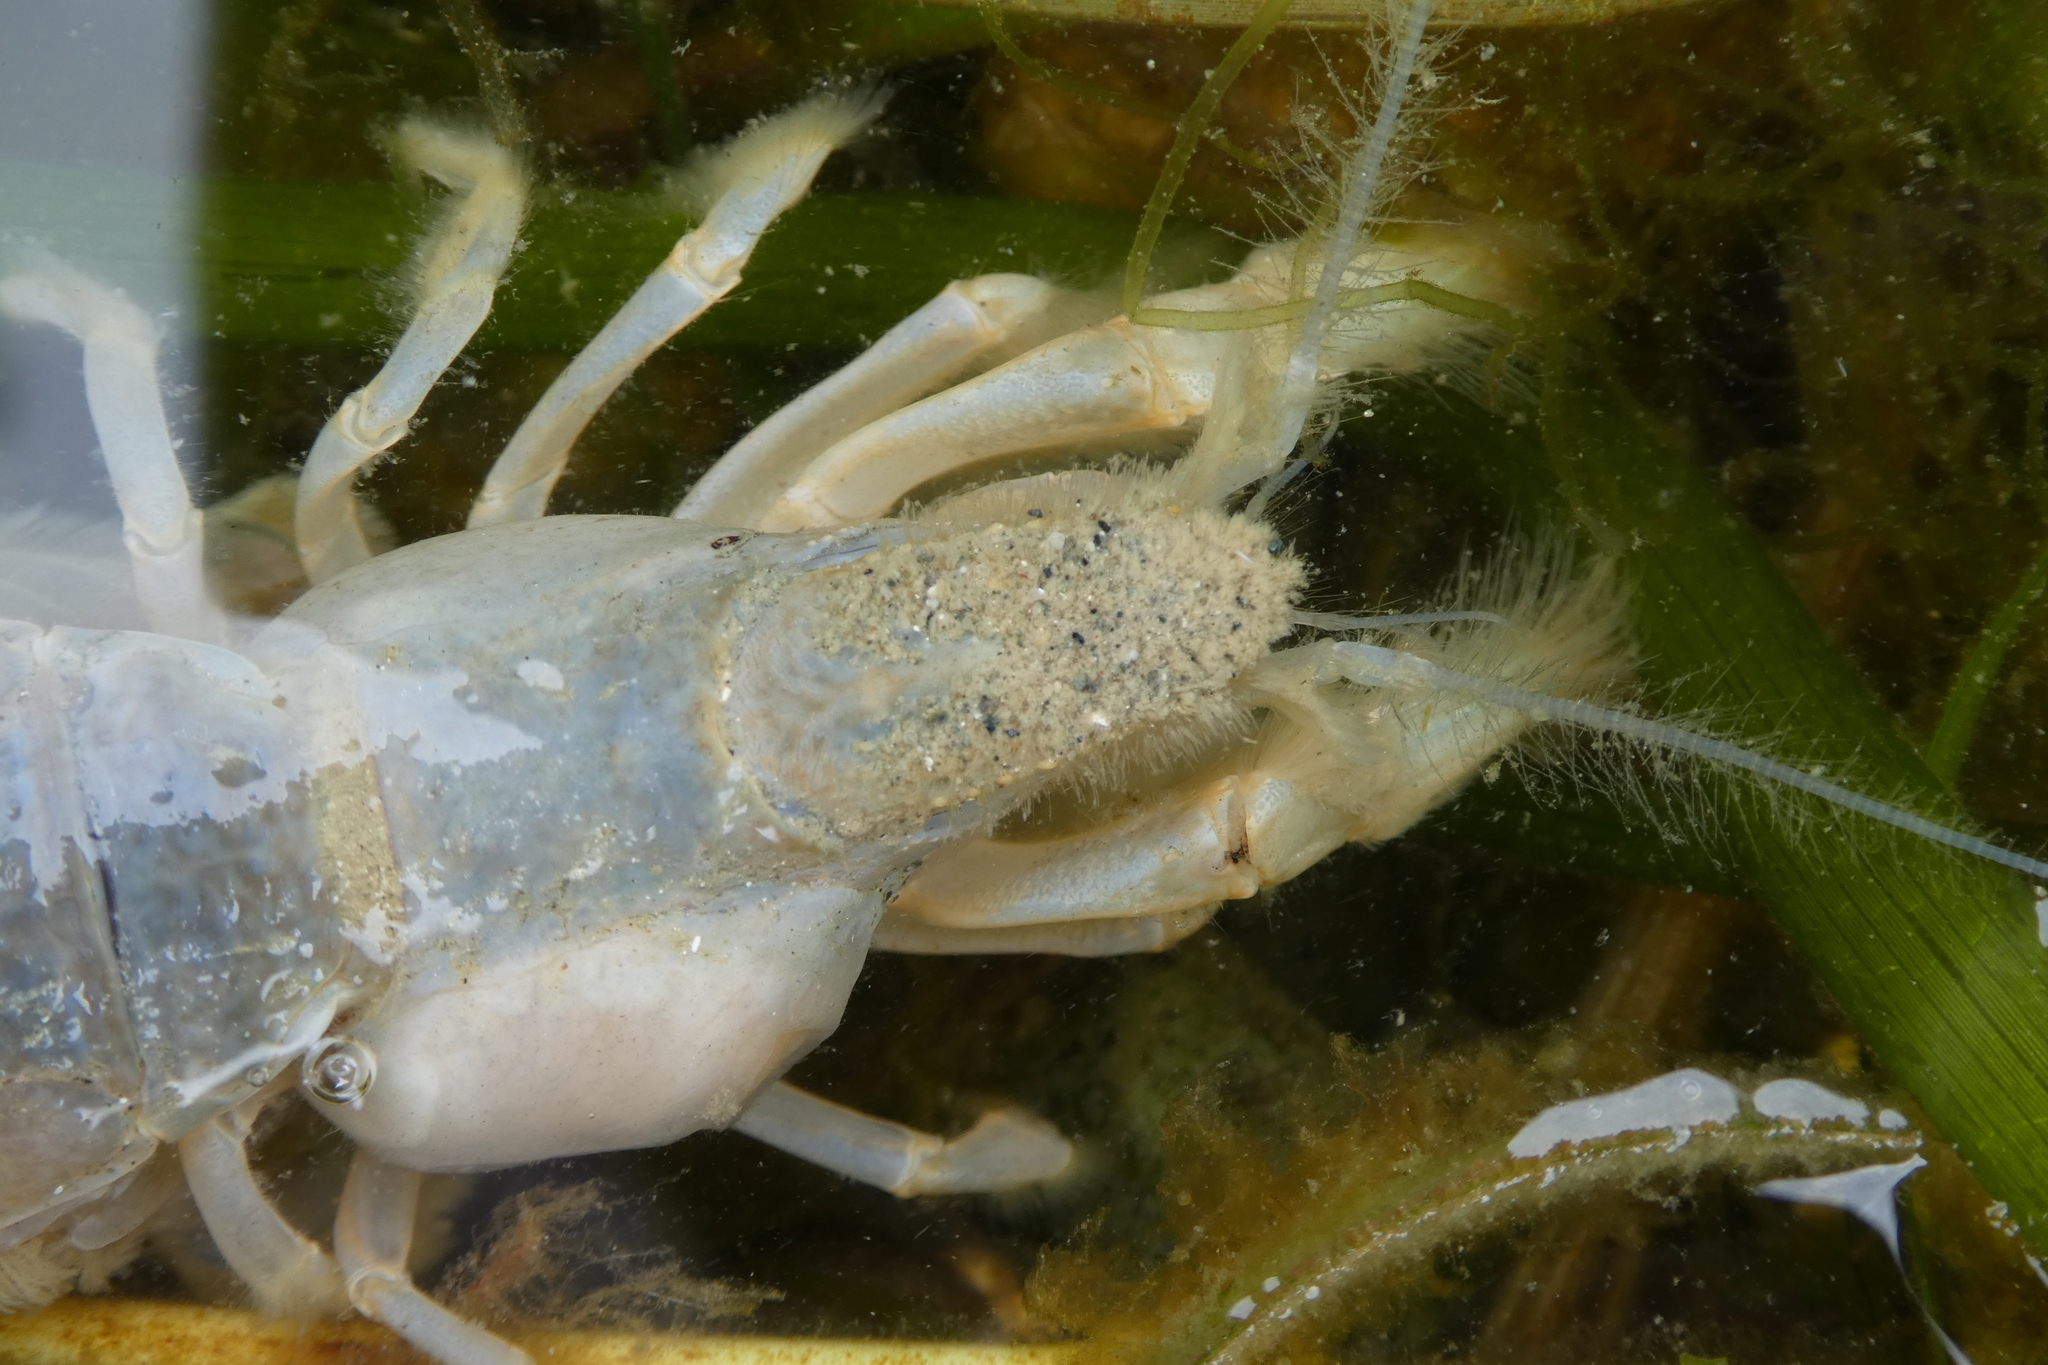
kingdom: Animalia
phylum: Arthropoda
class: Malacostraca
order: Decapoda
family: Upogebiidae
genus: Upogebia
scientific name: Upogebia pugettensis
